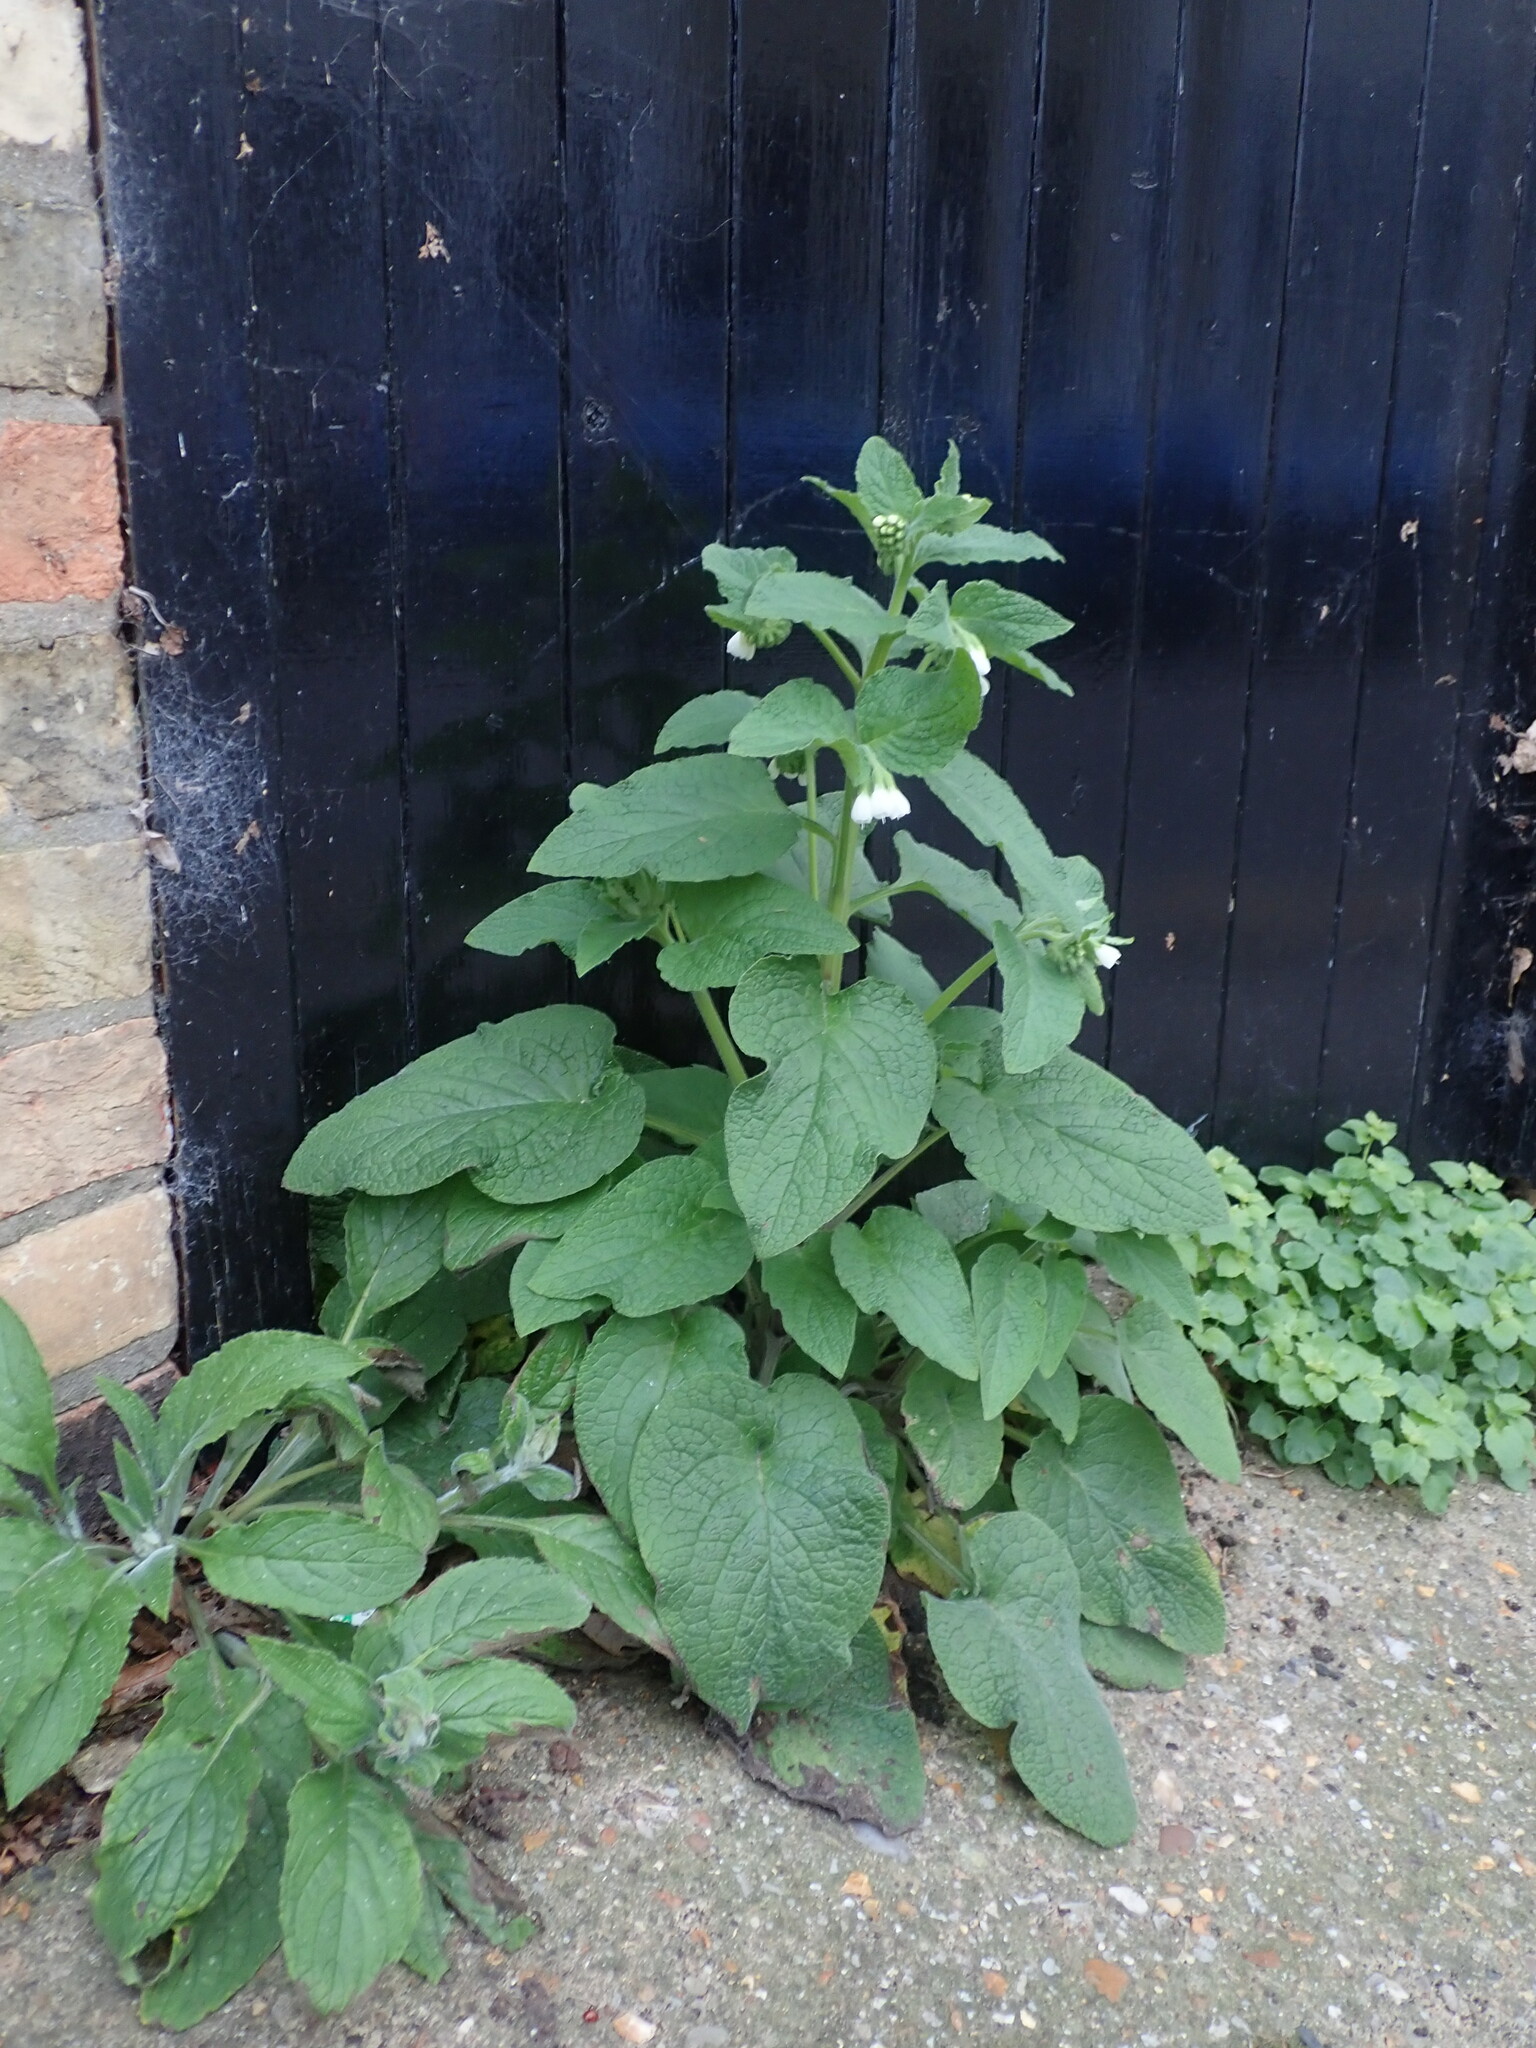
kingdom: Plantae
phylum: Tracheophyta
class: Magnoliopsida
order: Boraginales
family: Boraginaceae
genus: Symphytum
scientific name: Symphytum orientale
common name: White comfrey
